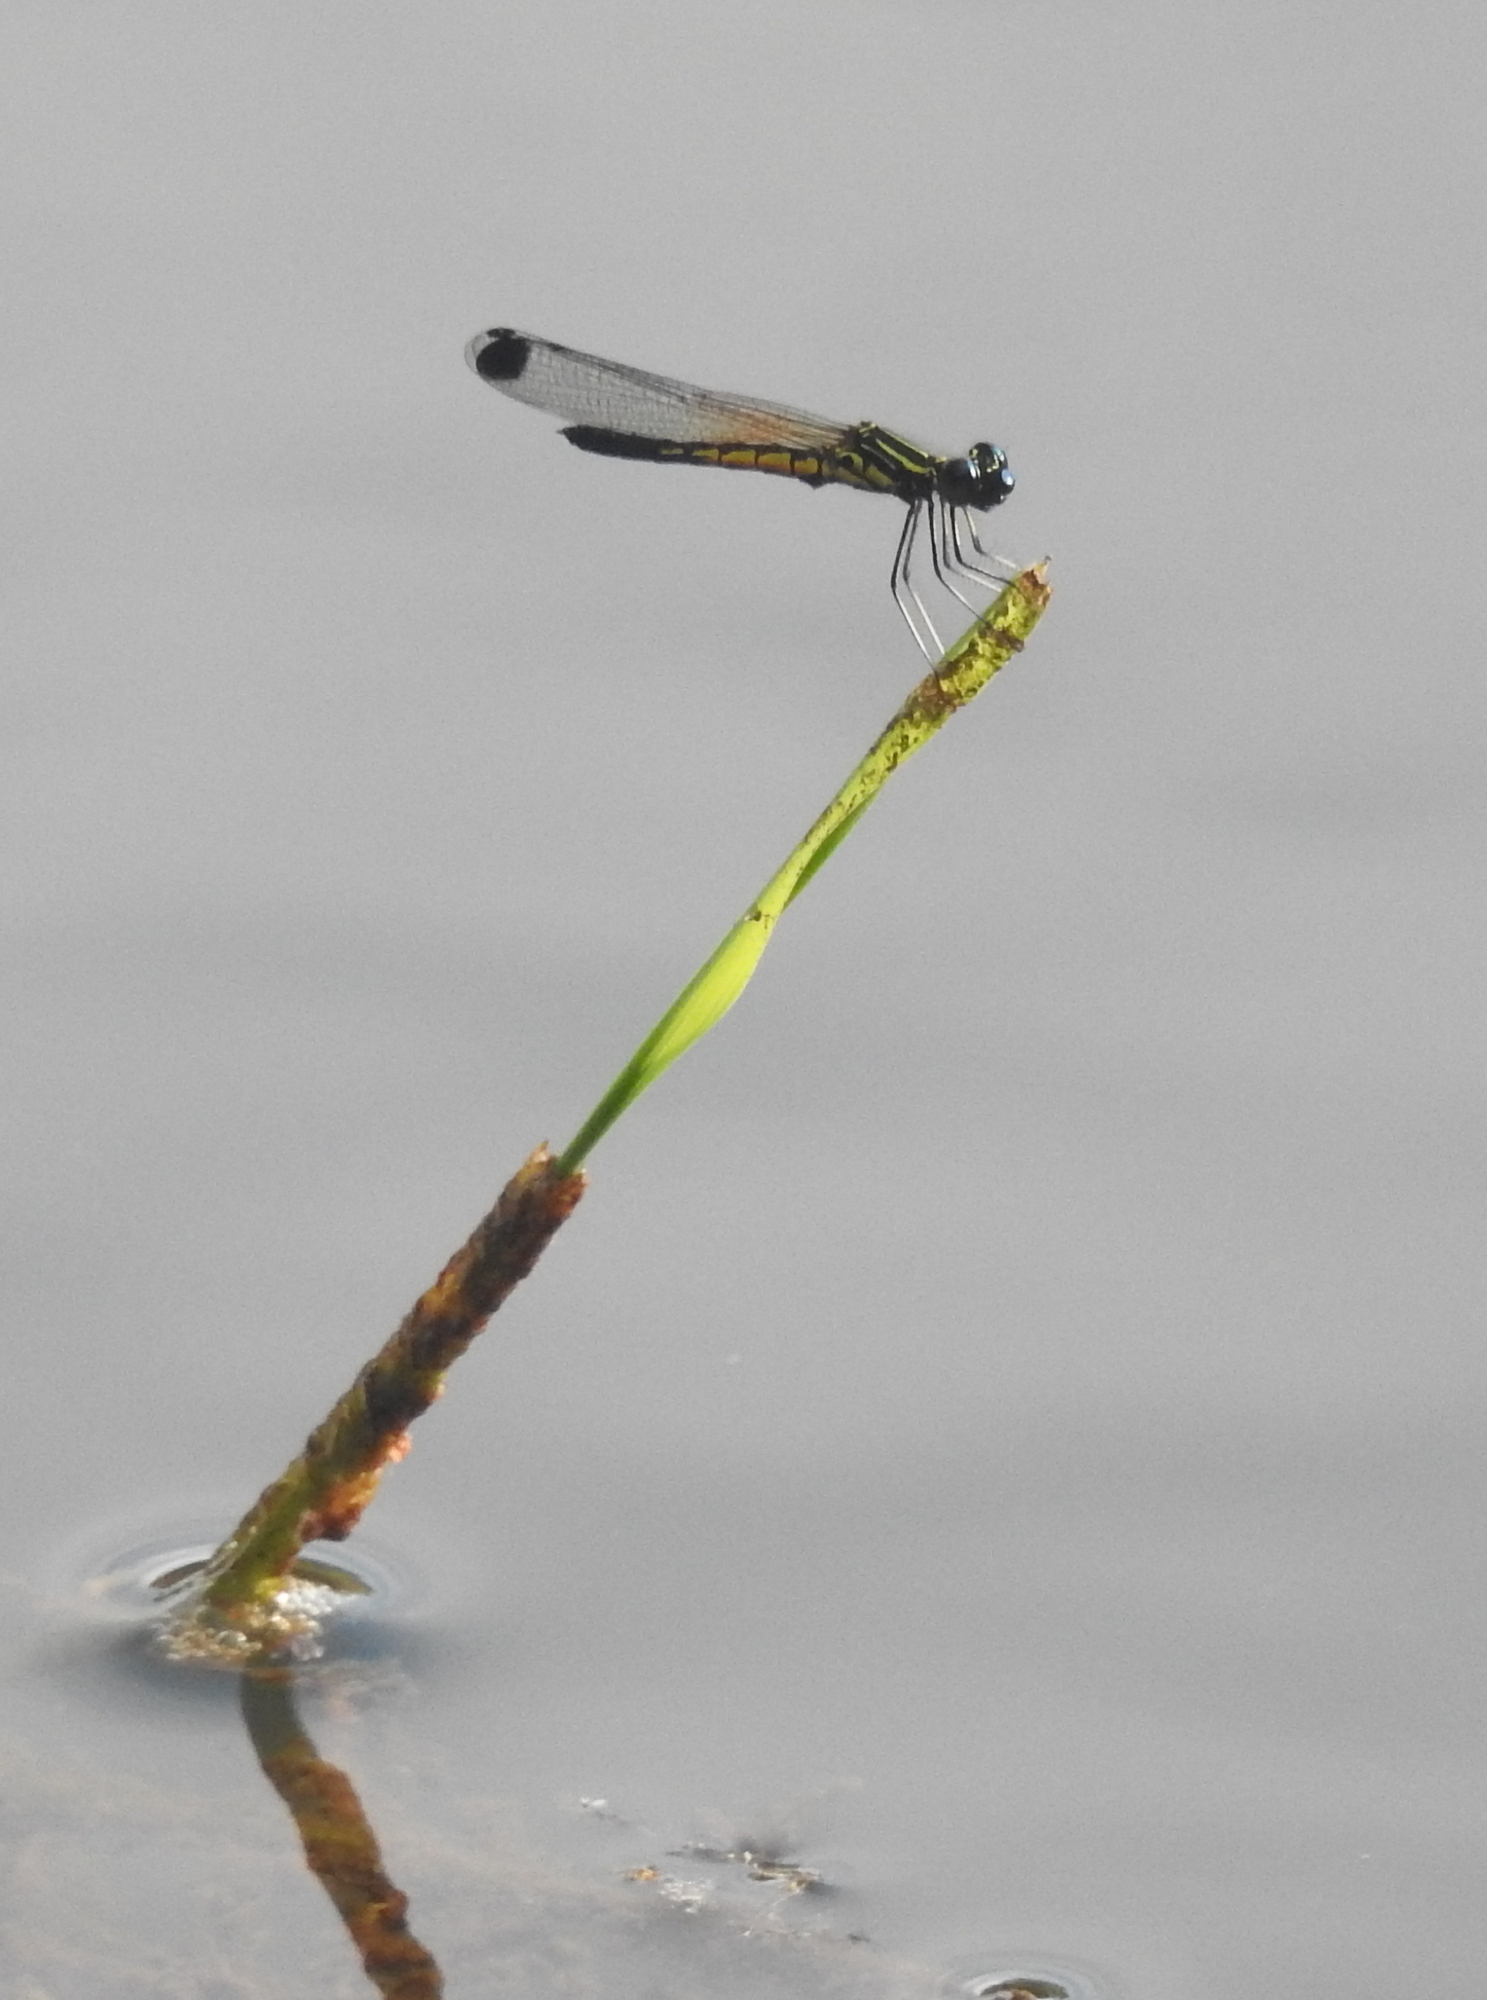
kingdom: Animalia
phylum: Arthropoda
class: Insecta
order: Odonata
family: Chlorocyphidae
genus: Libellago
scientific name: Libellago indica
